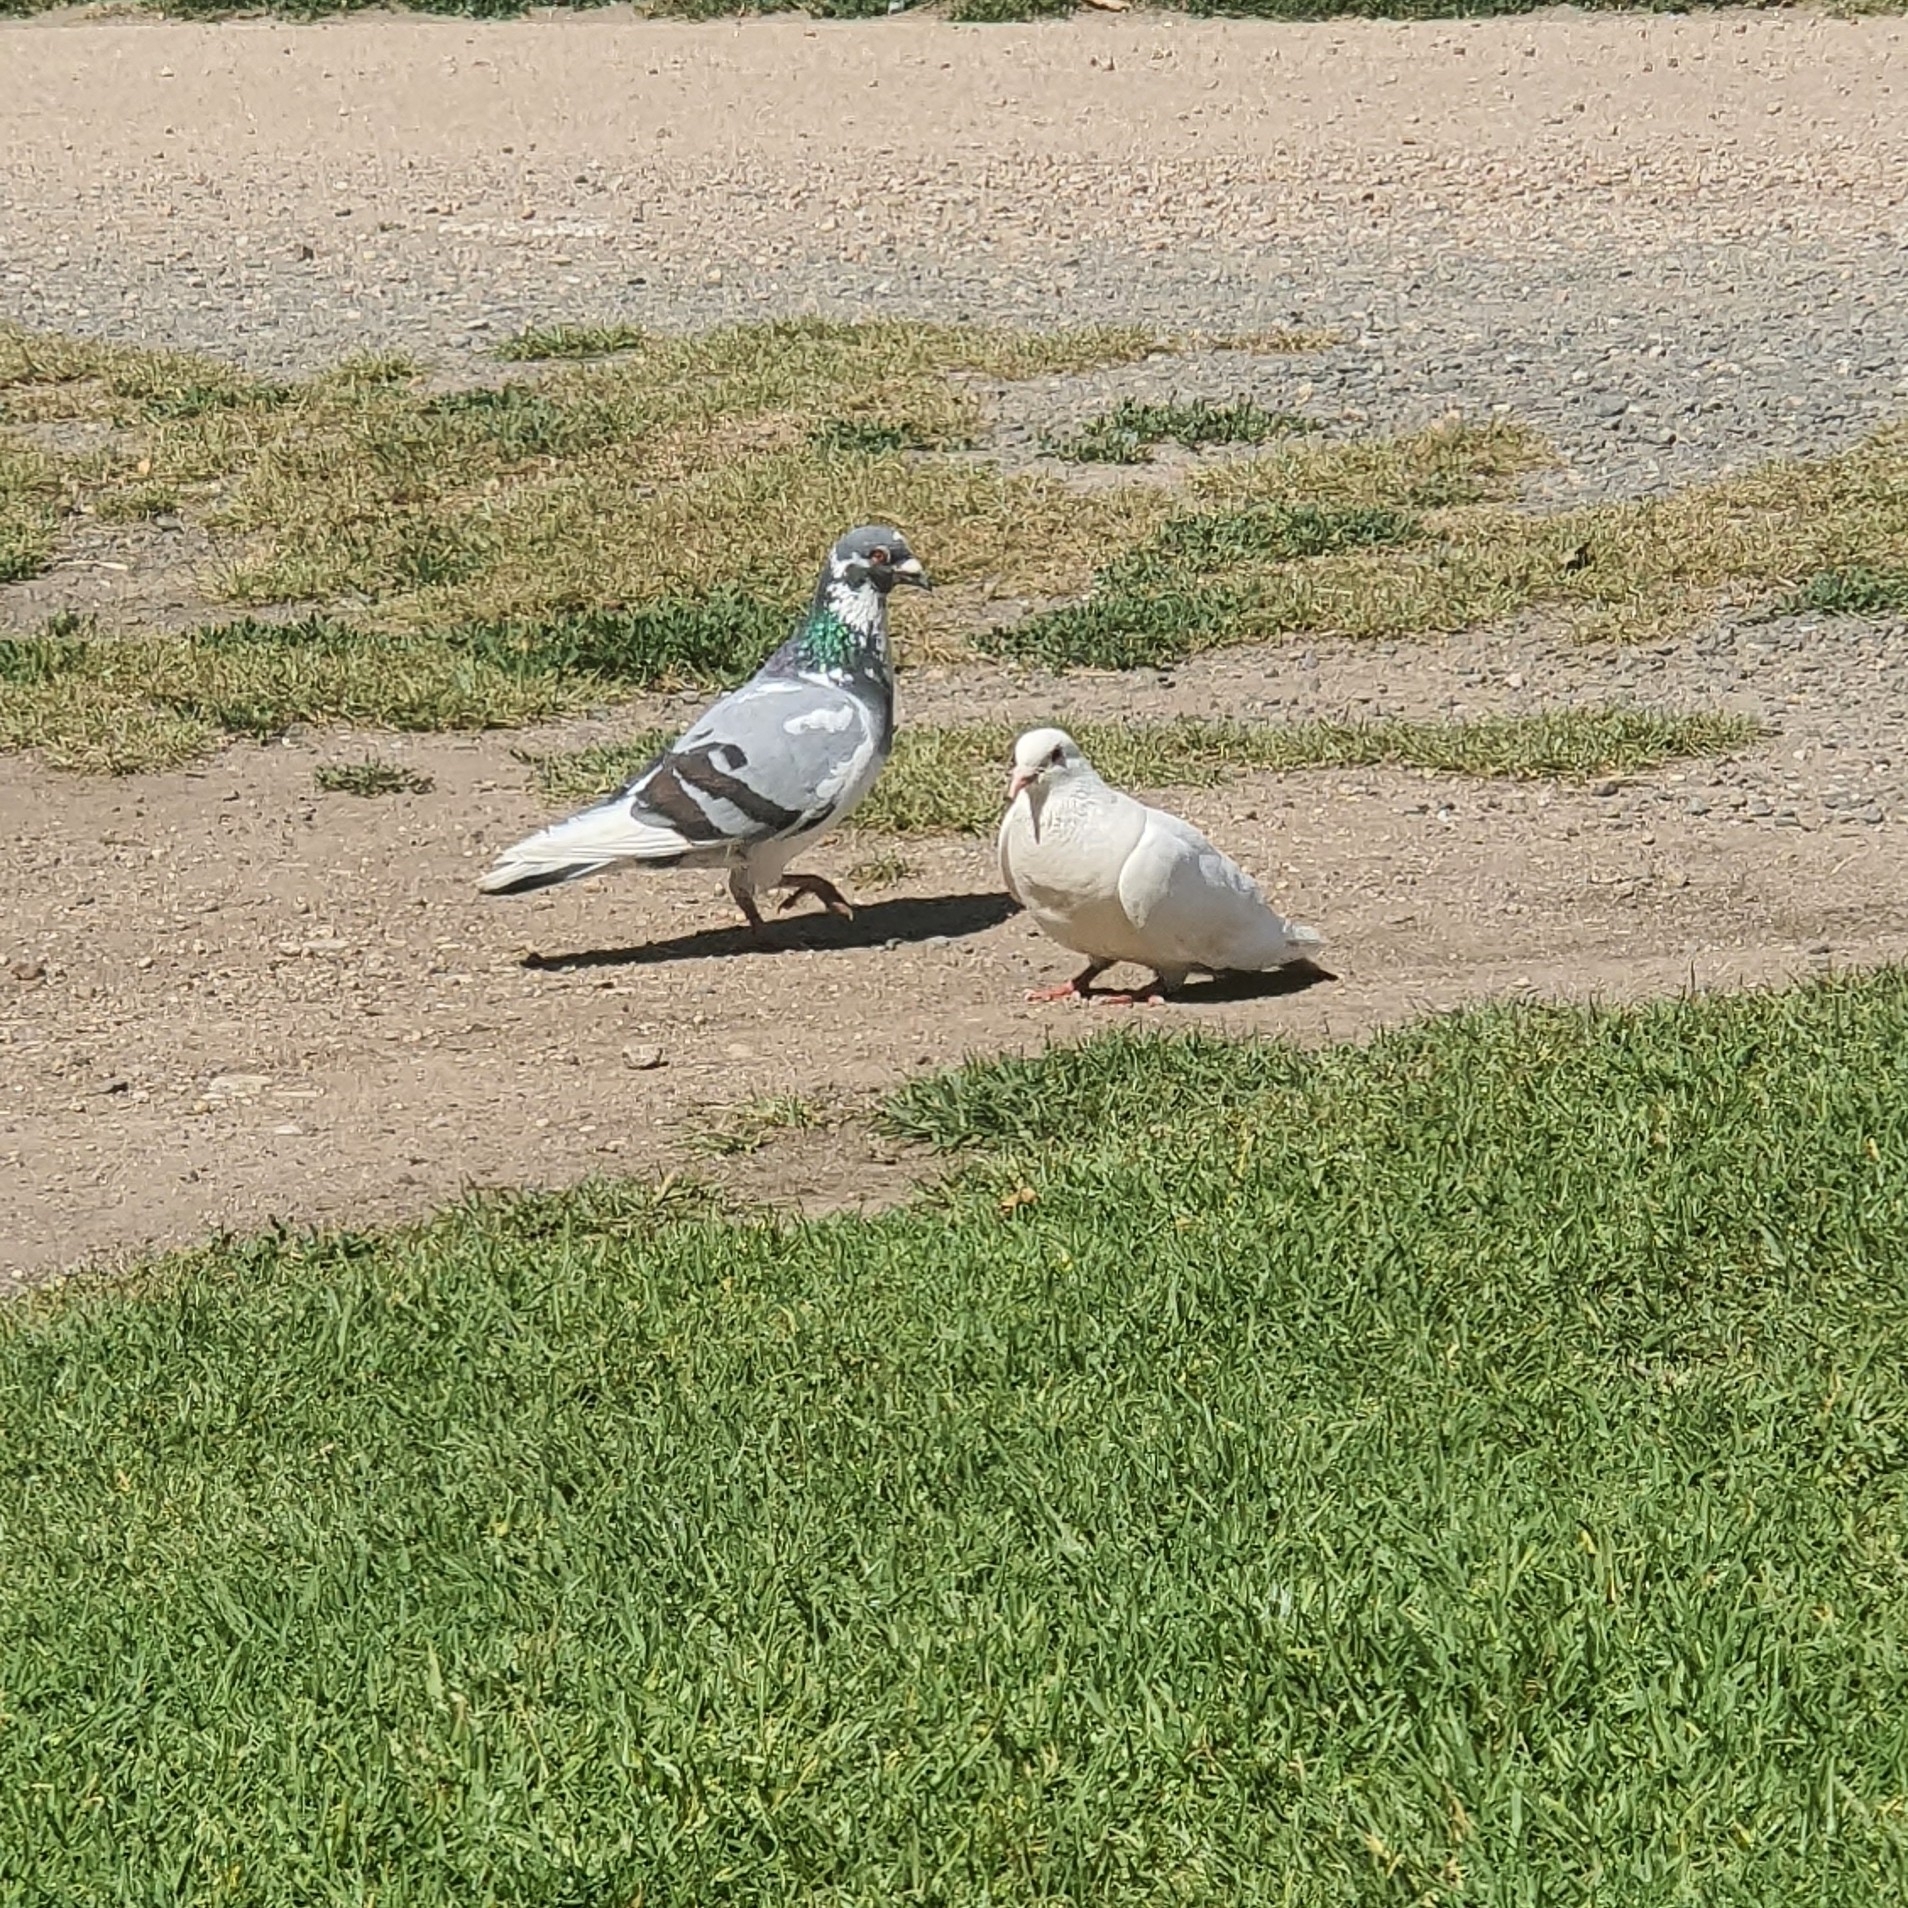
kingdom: Animalia
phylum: Chordata
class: Aves
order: Columbiformes
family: Columbidae
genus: Columba
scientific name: Columba livia
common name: Rock pigeon
